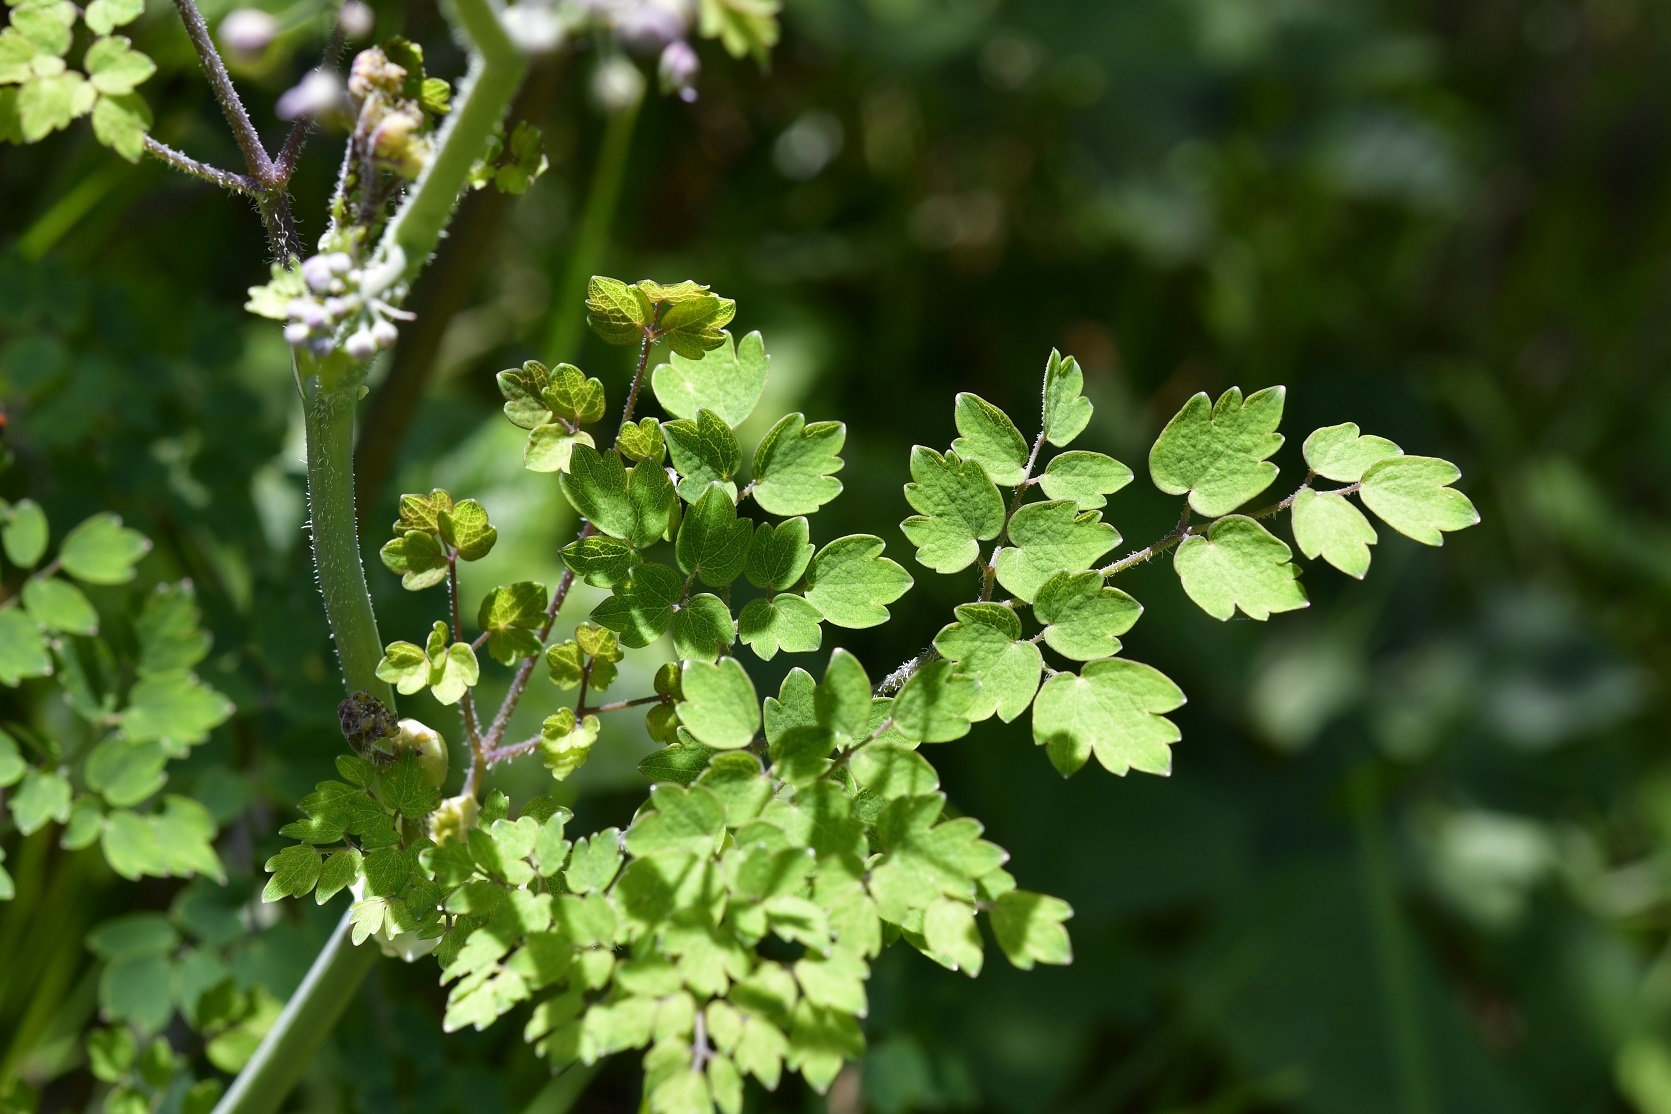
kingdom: Plantae
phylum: Tracheophyta
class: Magnoliopsida
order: Ranunculales
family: Ranunculaceae
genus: Thalictrum
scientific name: Thalictrum guatemalense
